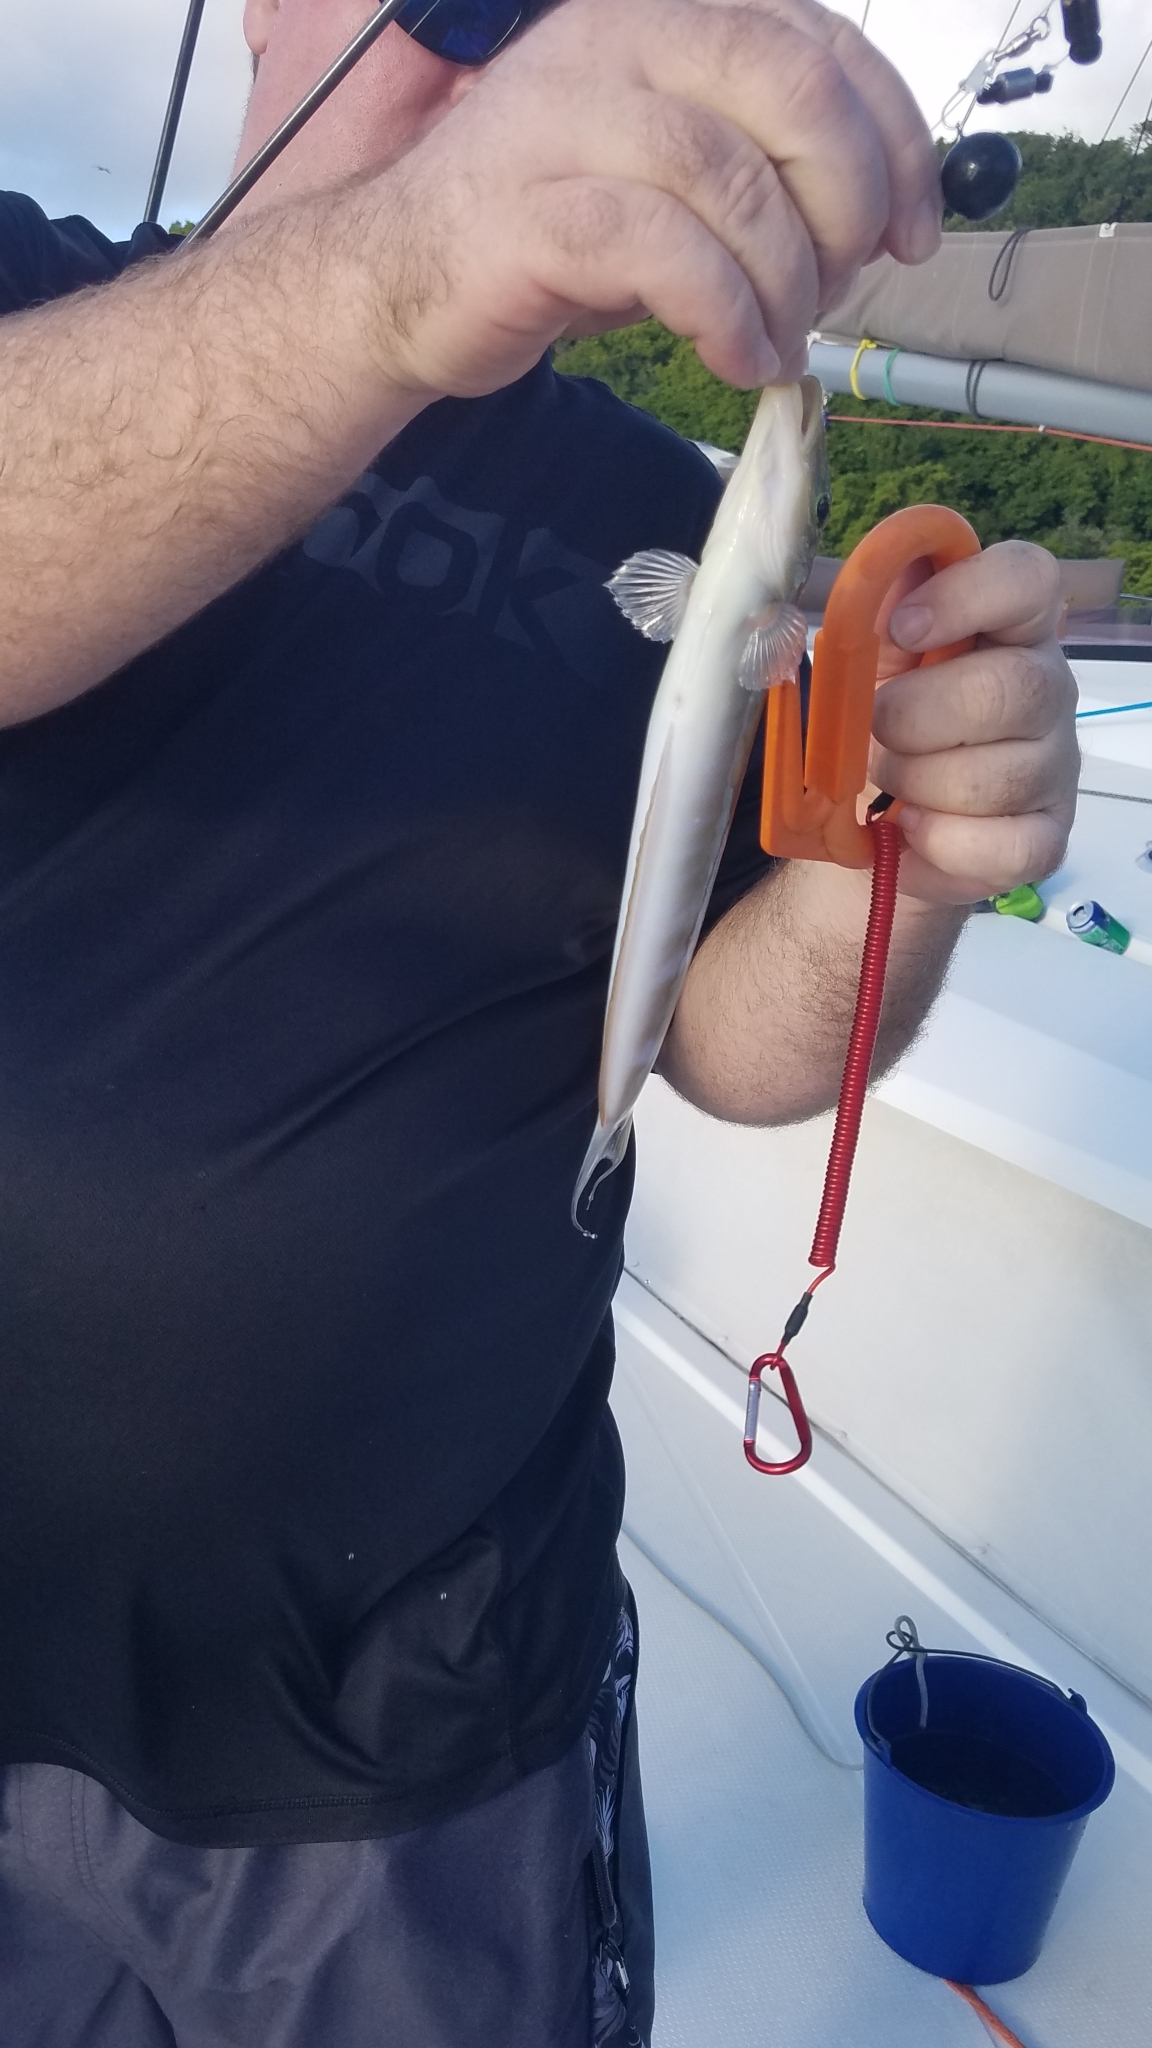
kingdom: Animalia
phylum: Chordata
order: Perciformes
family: Malacanthidae
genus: Malacanthus
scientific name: Malacanthus plumieri
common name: Sand tilefish
